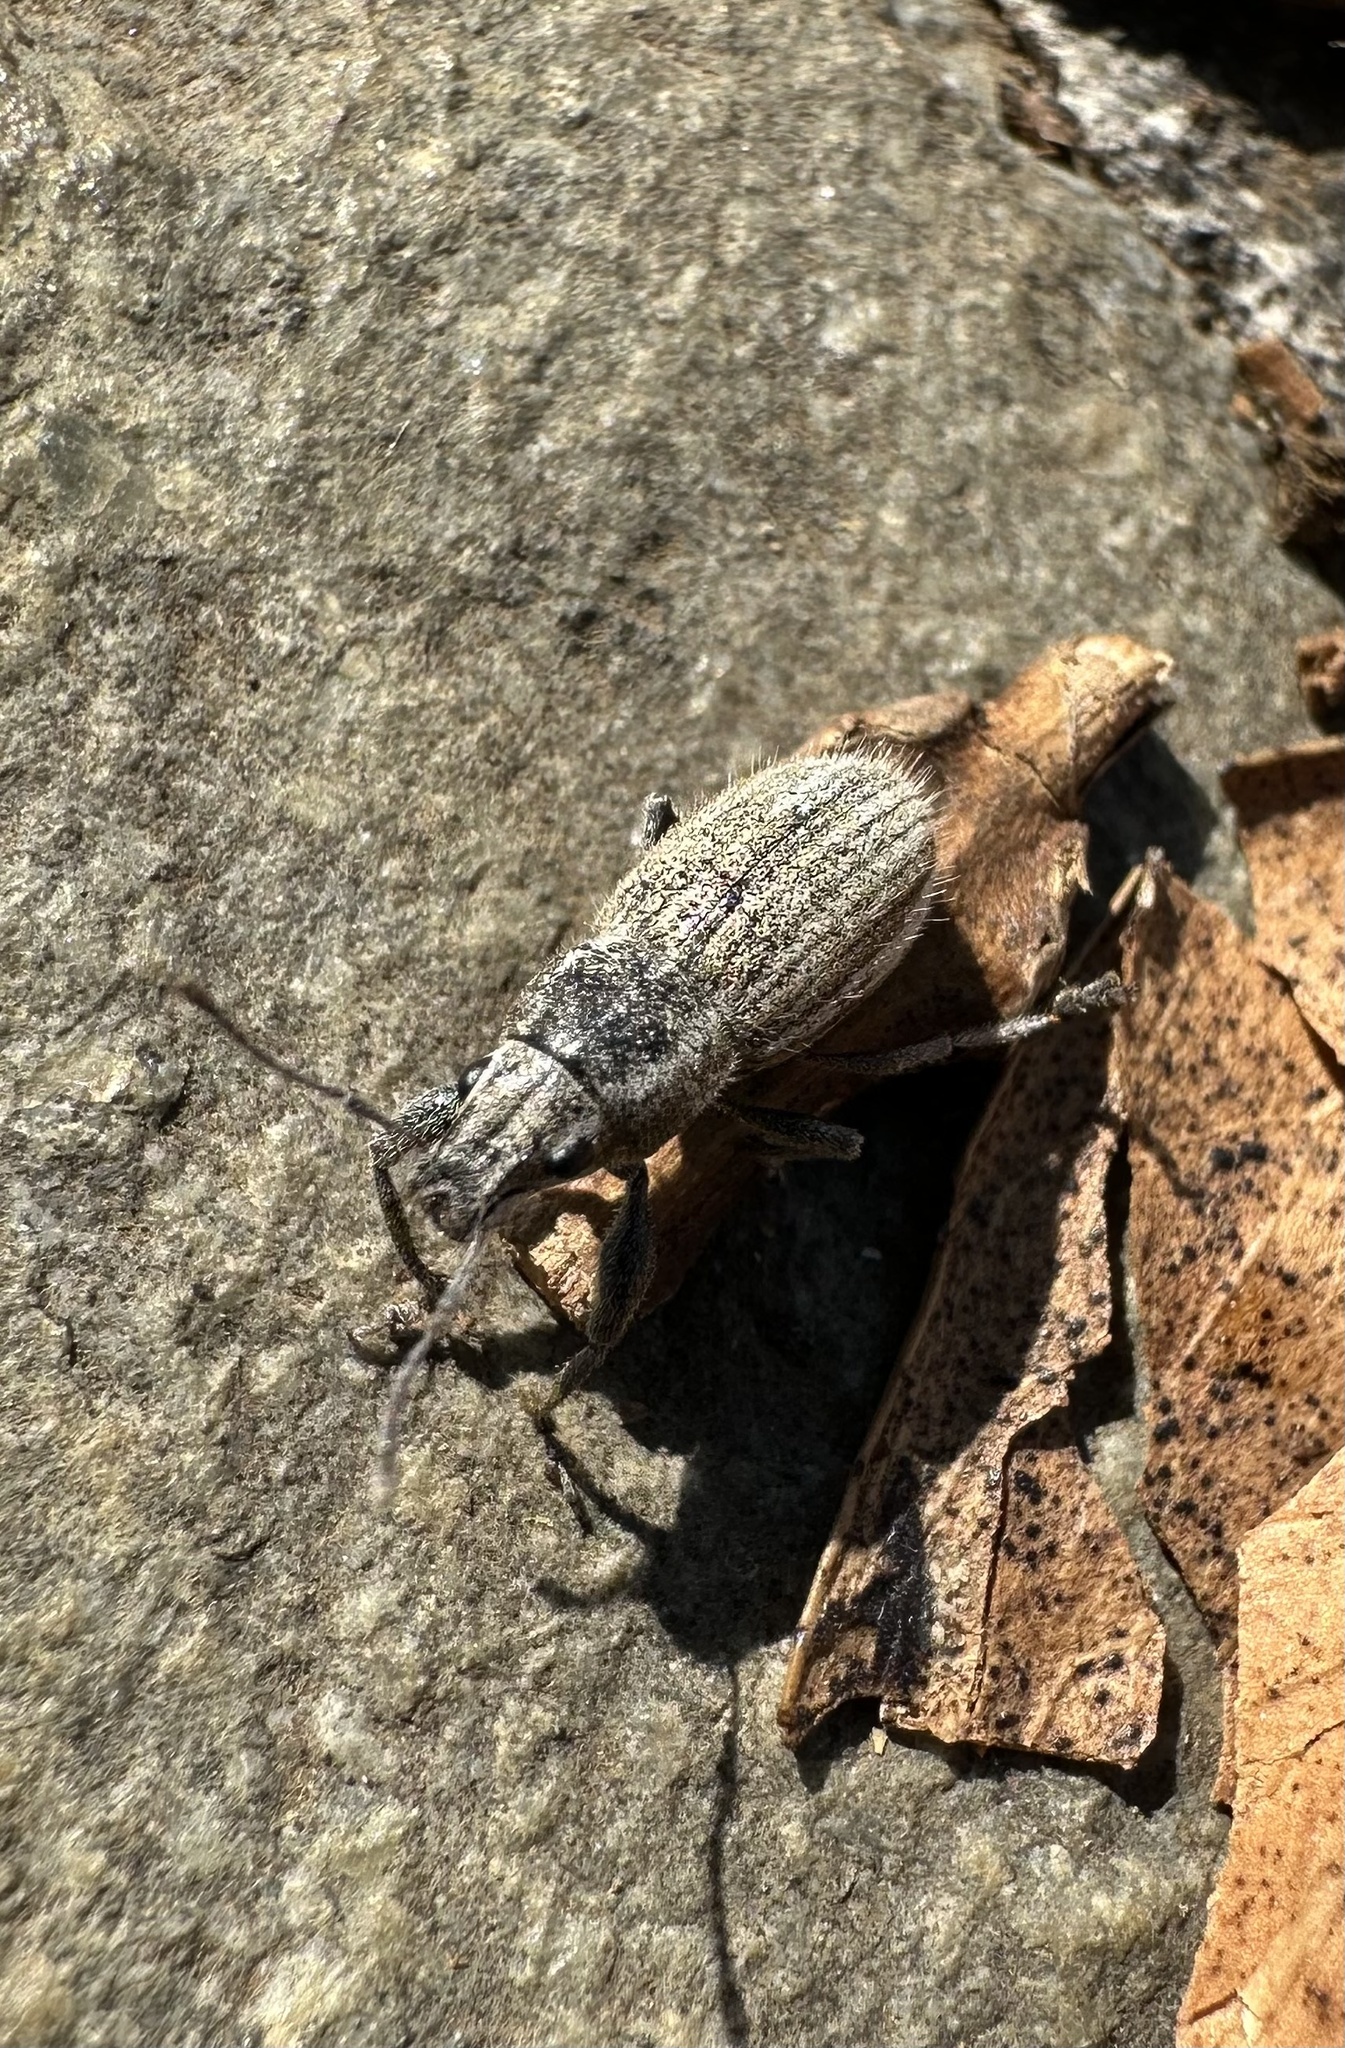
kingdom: Animalia
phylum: Arthropoda
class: Insecta
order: Coleoptera
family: Curculionidae
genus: Naupactus
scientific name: Naupactus leucoloma
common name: Whitefringed beetle
